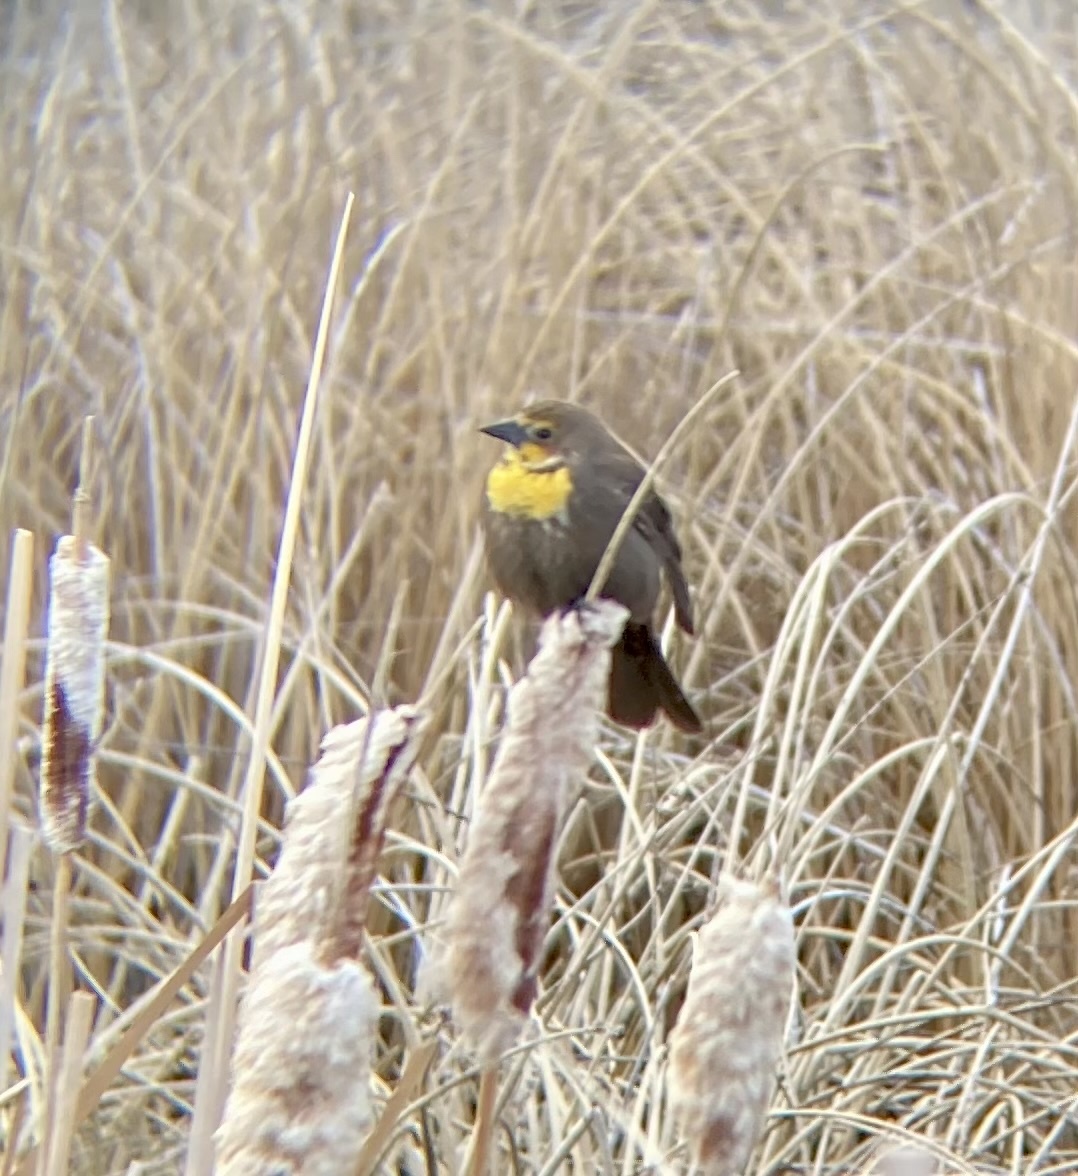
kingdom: Animalia
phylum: Chordata
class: Aves
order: Passeriformes
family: Icteridae
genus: Xanthocephalus
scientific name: Xanthocephalus xanthocephalus
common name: Yellow-headed blackbird
